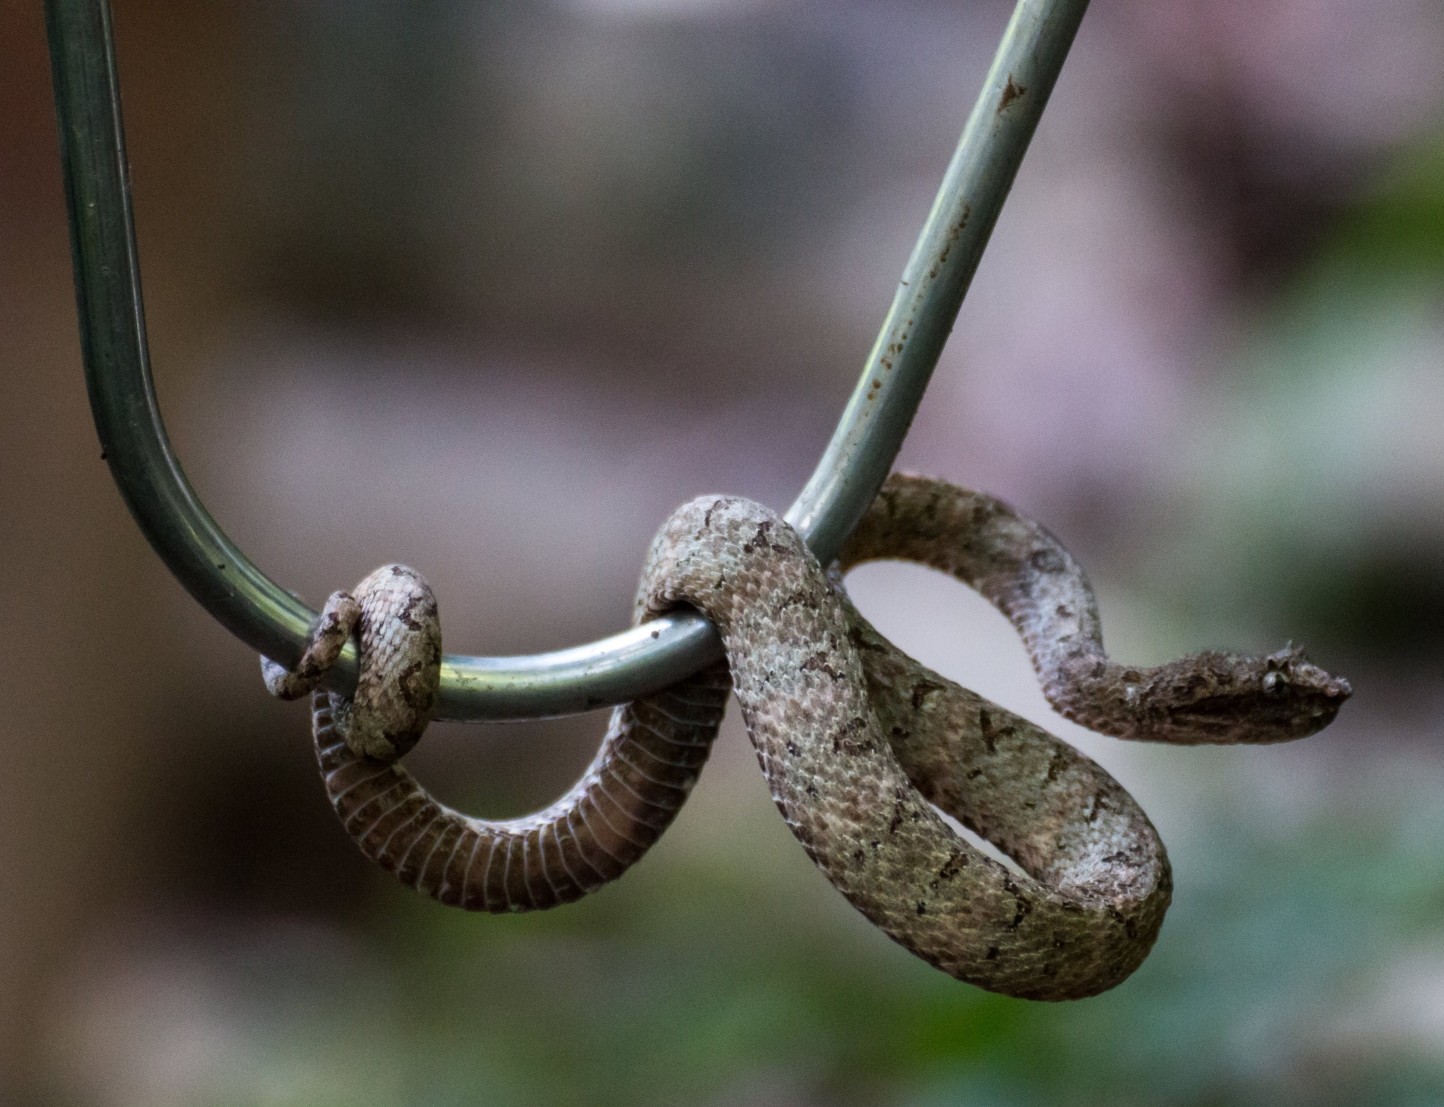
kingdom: Animalia
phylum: Chordata
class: Squamata
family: Viperidae
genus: Bothriechis
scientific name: Bothriechis schlegelii
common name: Eyelash viper
